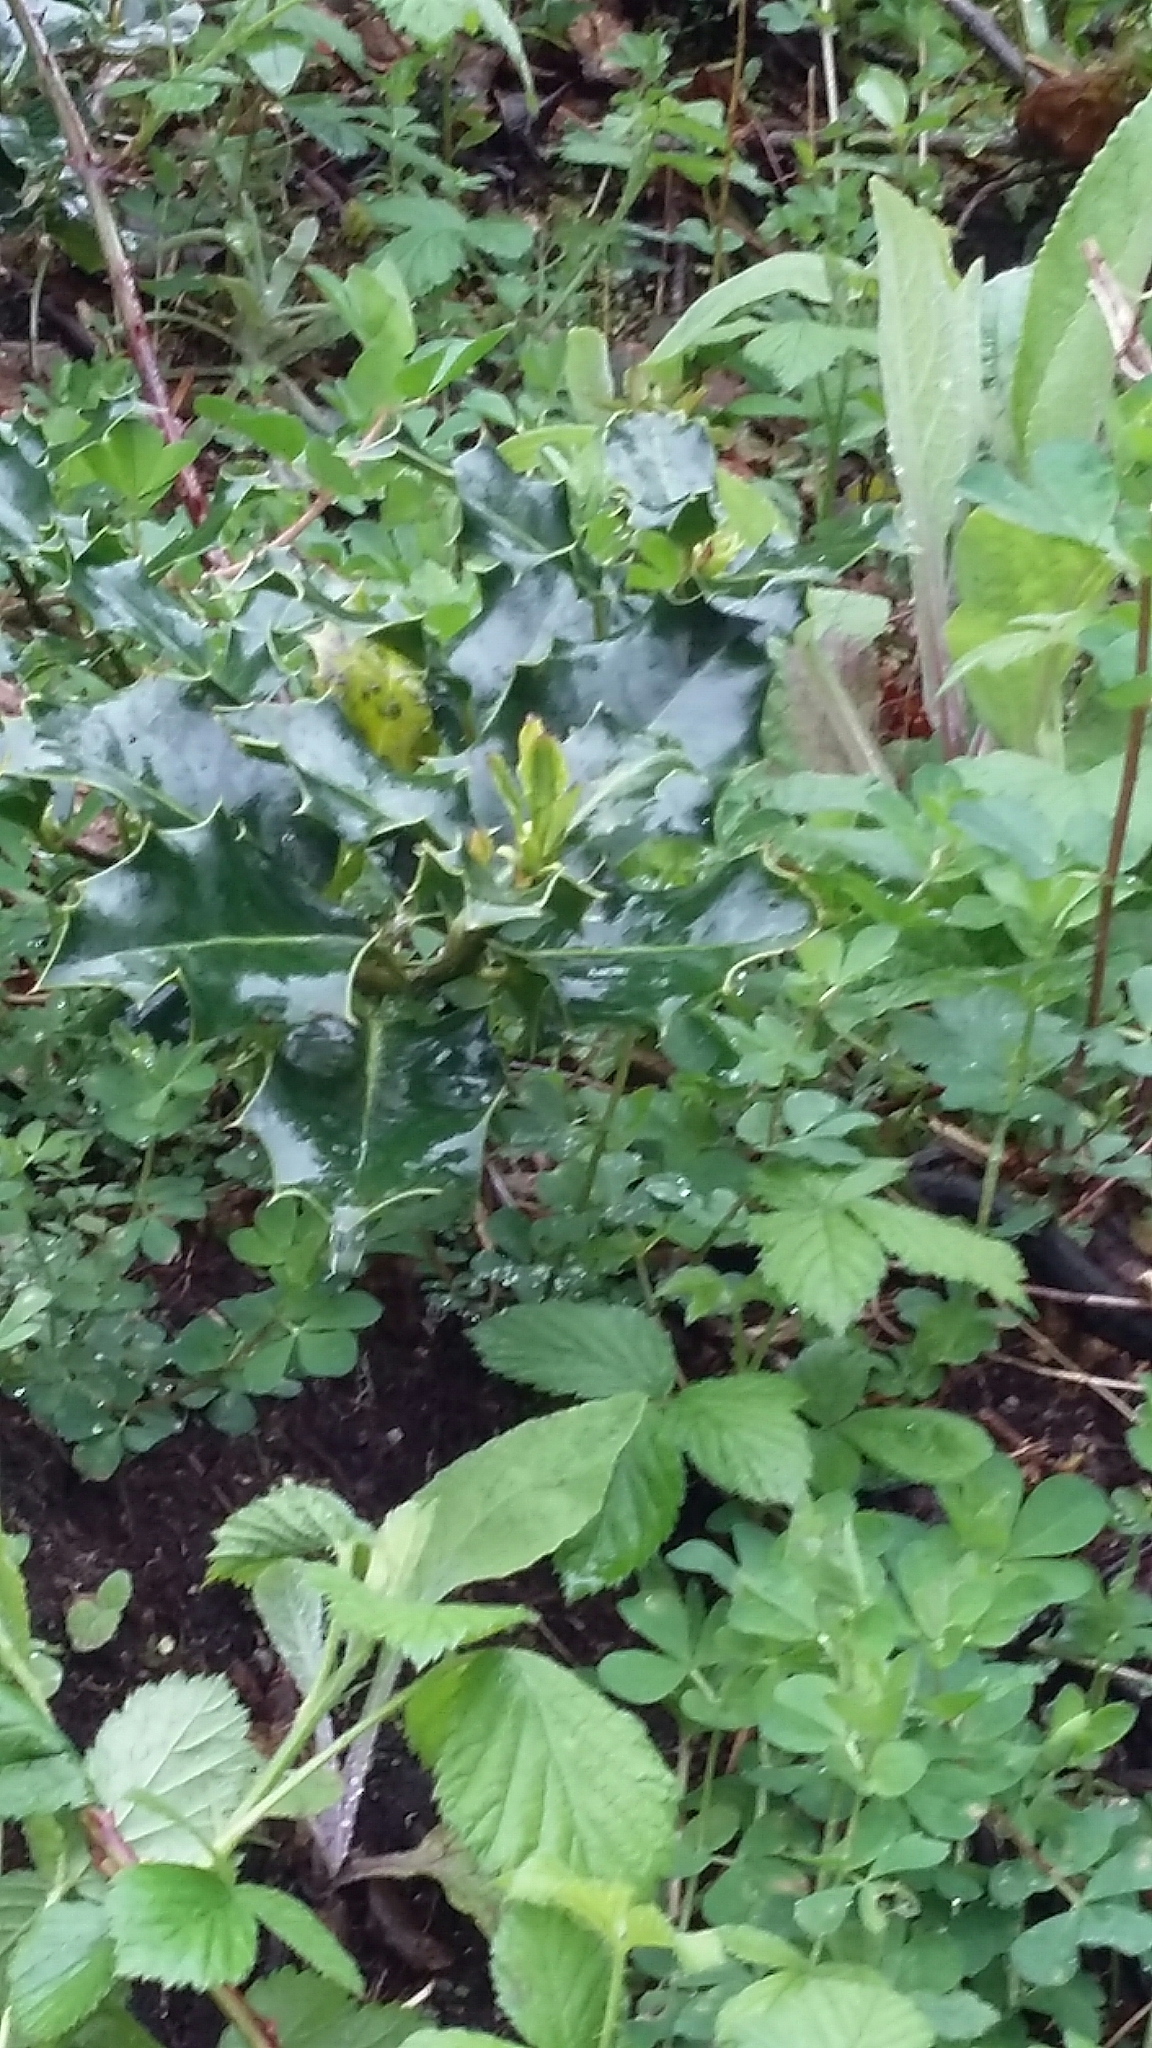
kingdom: Plantae
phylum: Tracheophyta
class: Magnoliopsida
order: Aquifoliales
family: Aquifoliaceae
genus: Ilex
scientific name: Ilex aquifolium
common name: English holly
